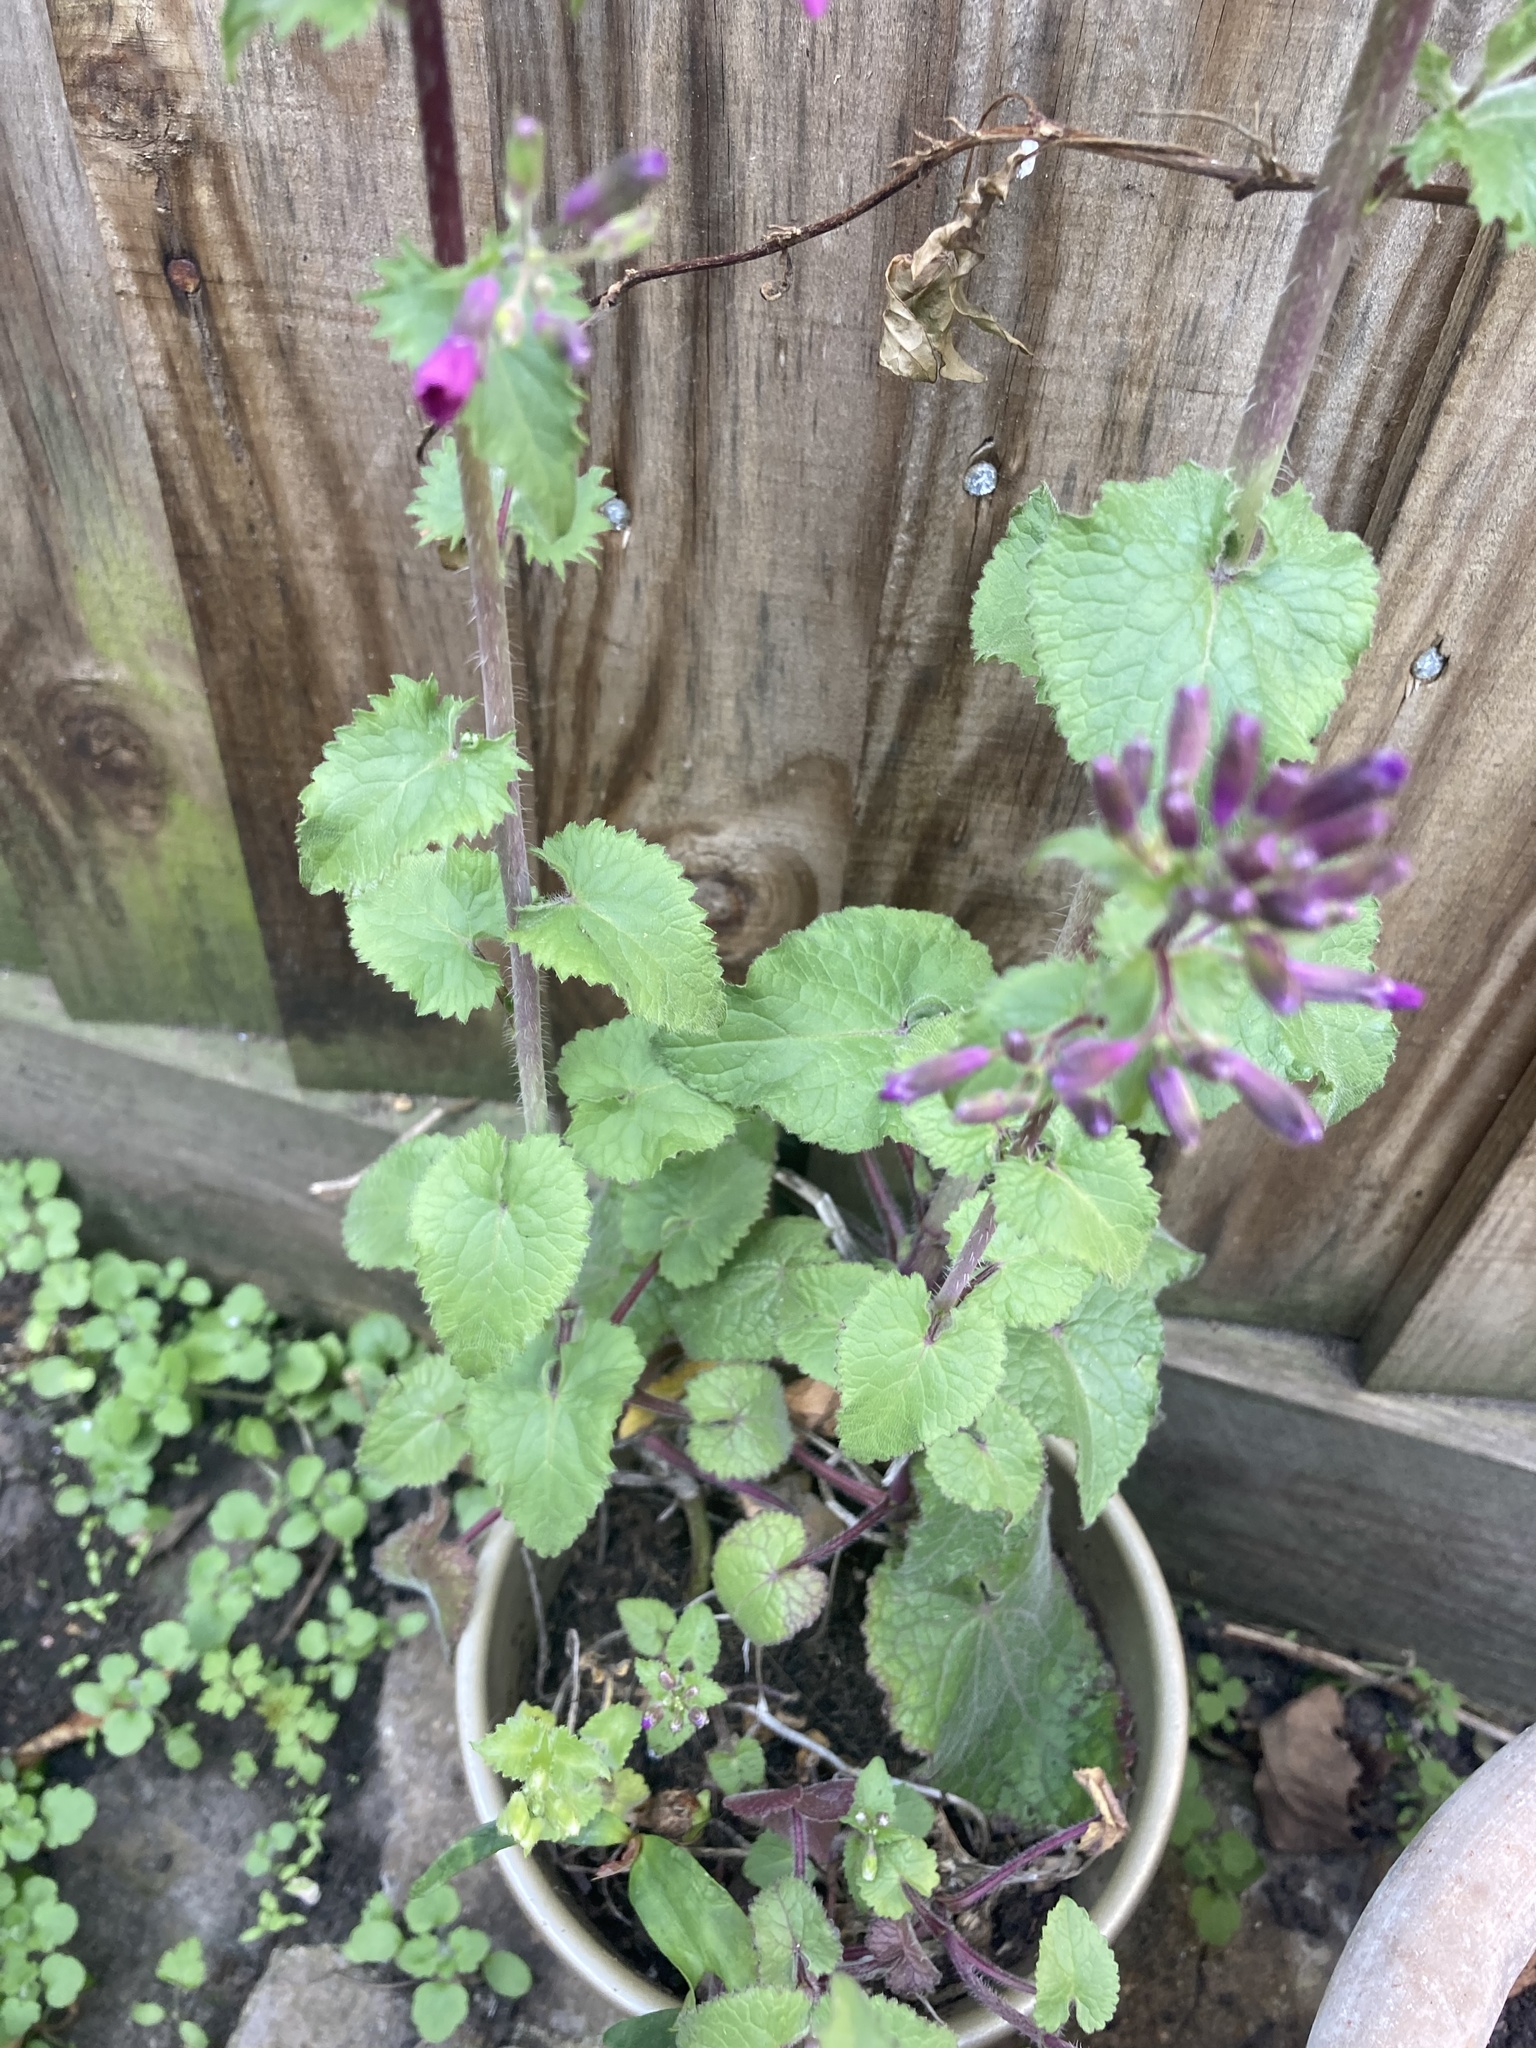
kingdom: Plantae
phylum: Tracheophyta
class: Magnoliopsida
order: Brassicales
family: Brassicaceae
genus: Lunaria
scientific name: Lunaria annua
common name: Honesty
